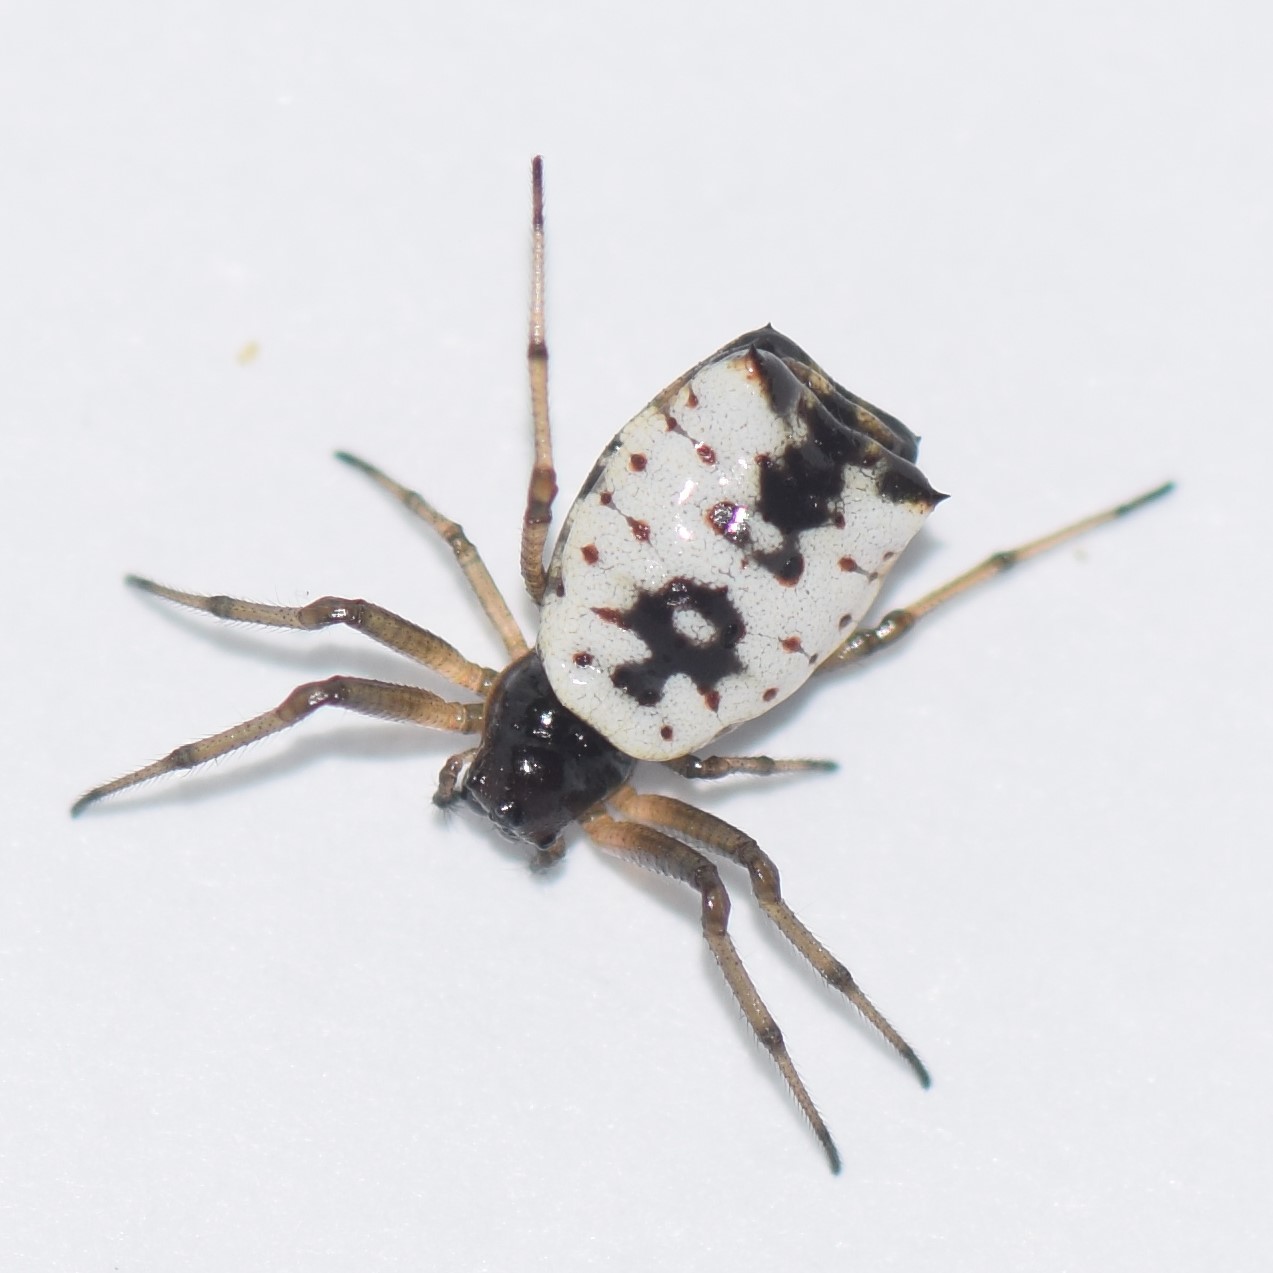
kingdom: Animalia
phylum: Arthropoda
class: Arachnida
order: Araneae
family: Araneidae
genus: Micrathena
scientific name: Micrathena mitrata
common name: Orb weavers
